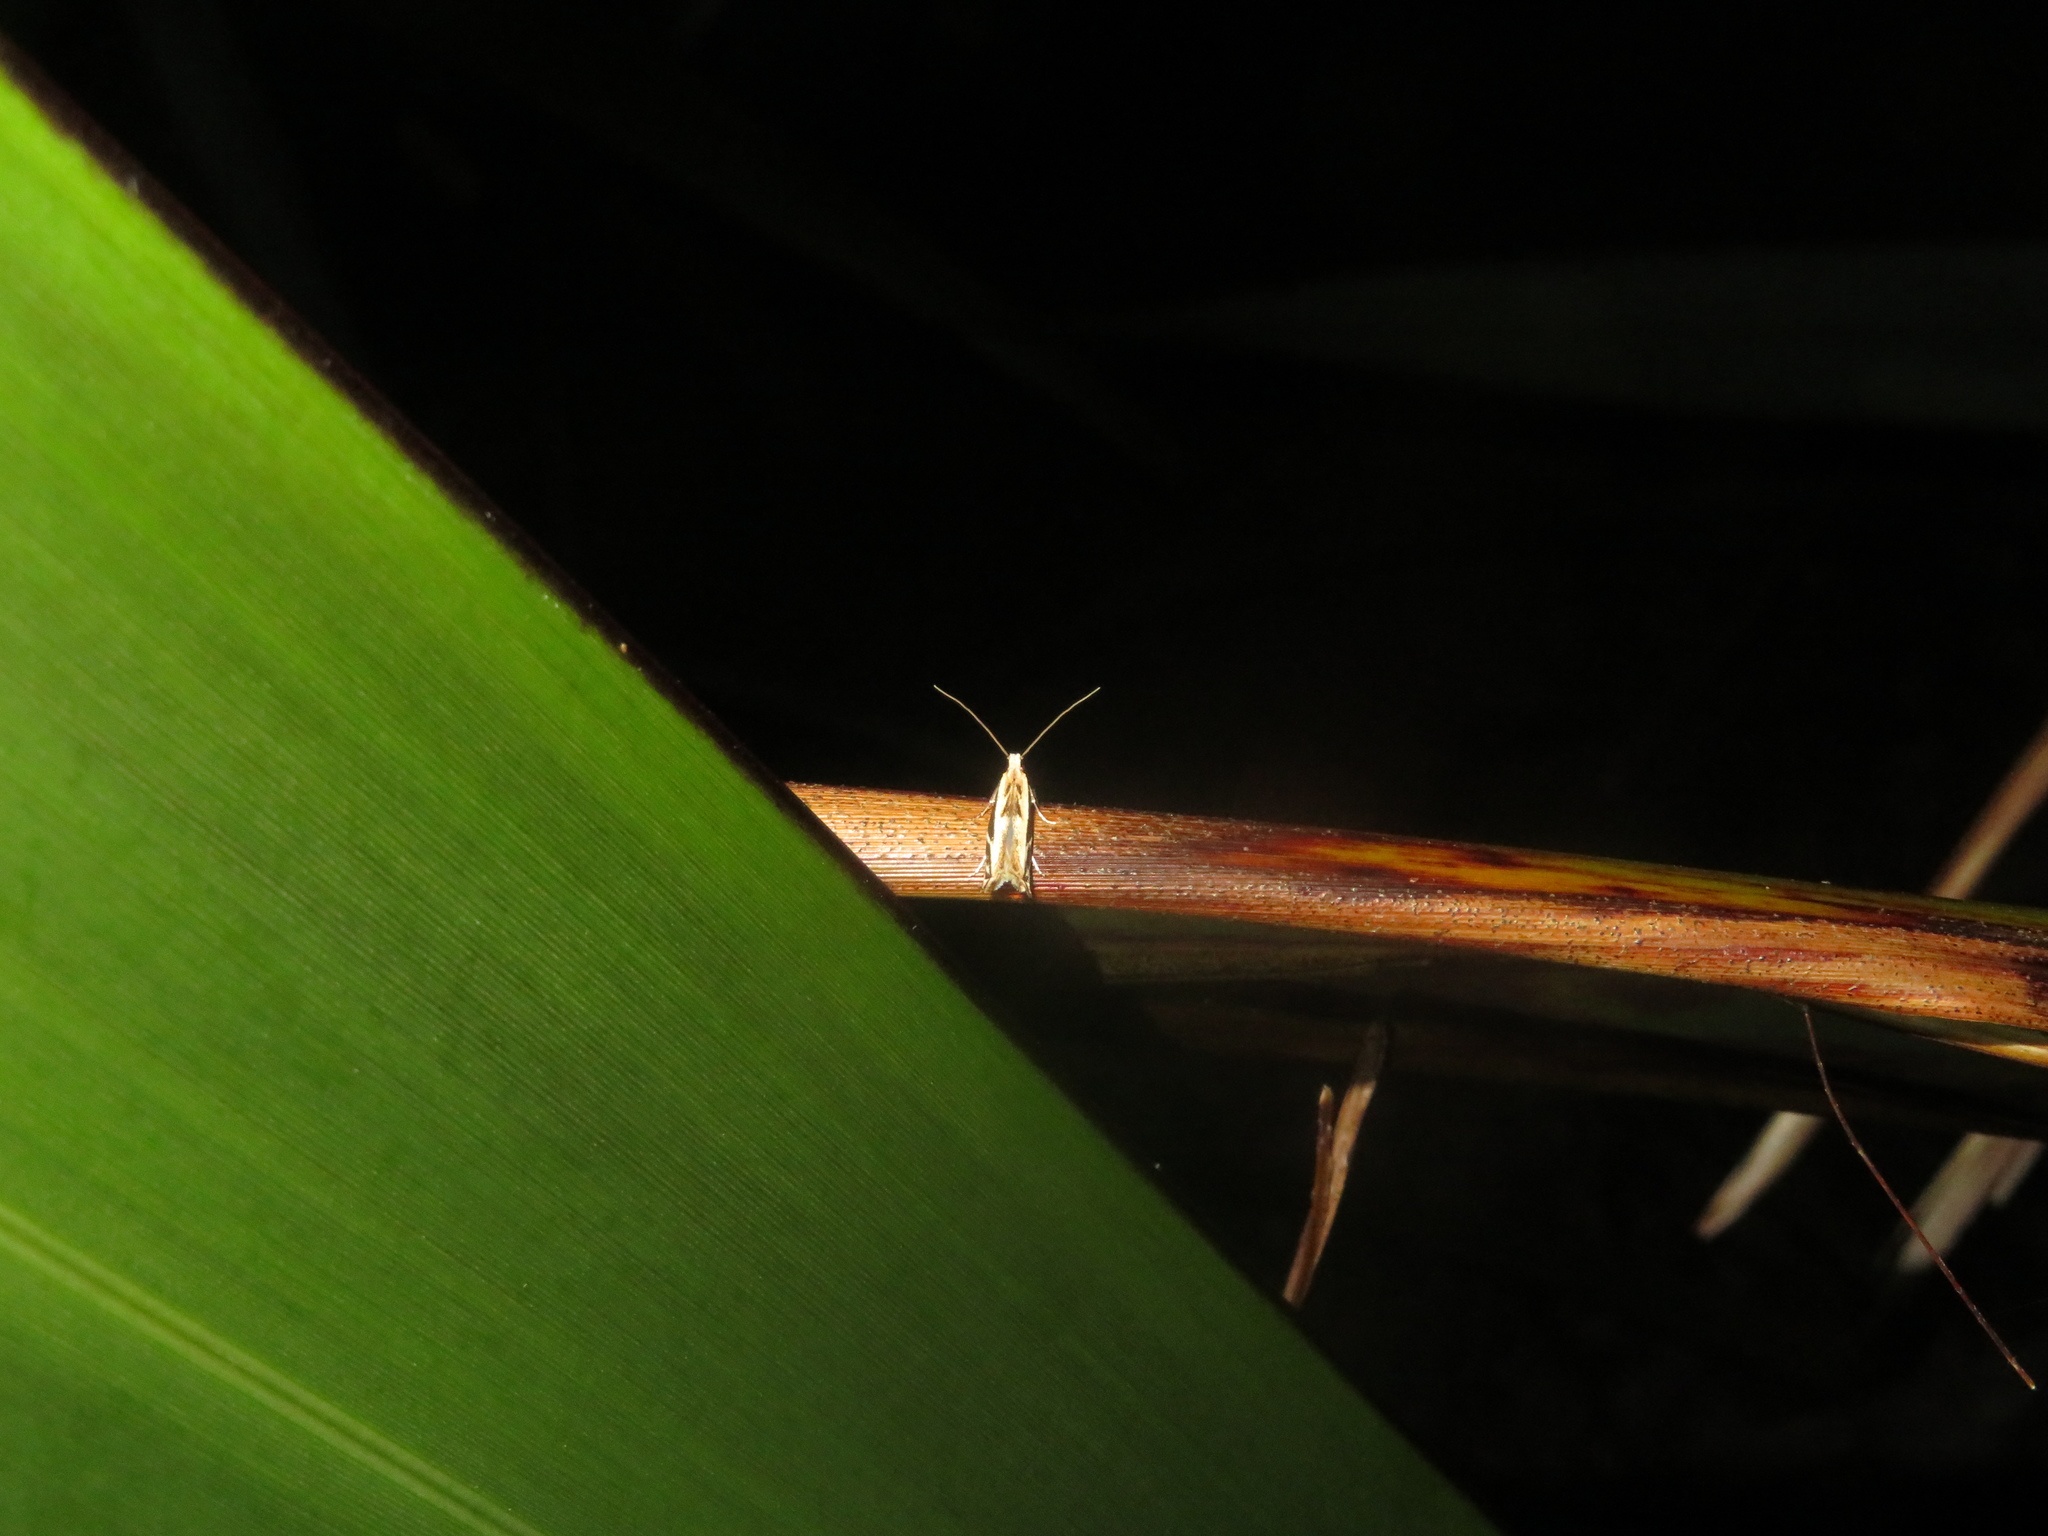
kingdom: Animalia
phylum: Arthropoda
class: Insecta
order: Lepidoptera
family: Tineidae
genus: Erechthias
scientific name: Erechthias terminella
